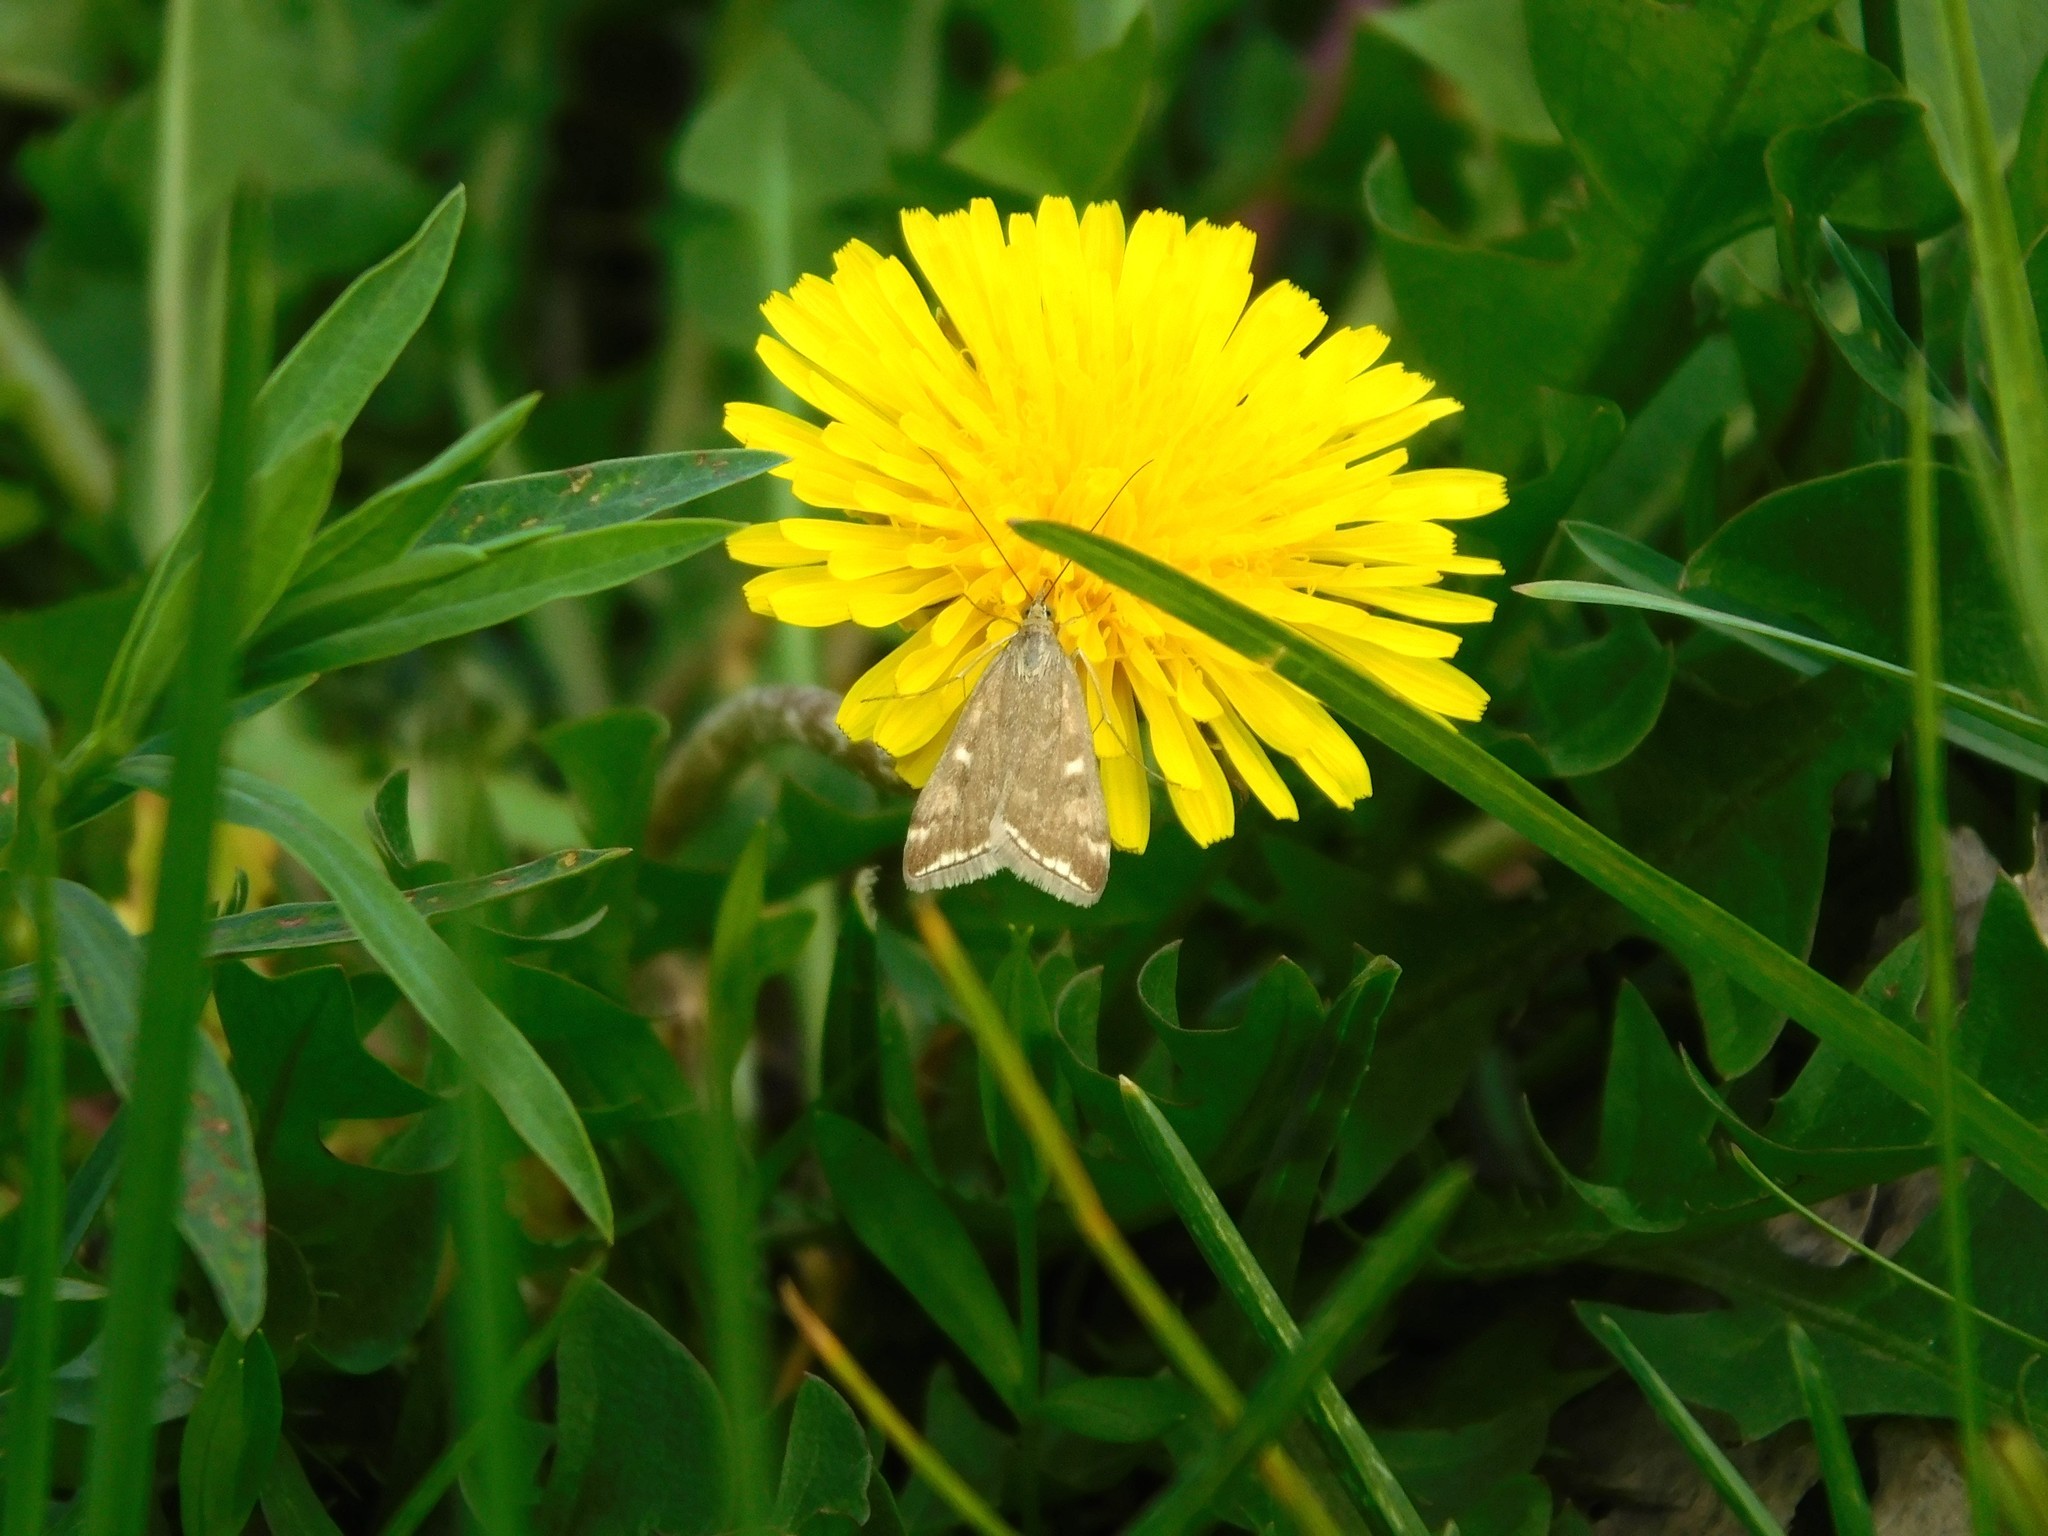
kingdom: Animalia
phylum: Arthropoda
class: Insecta
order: Lepidoptera
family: Crambidae
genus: Loxostege
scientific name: Loxostege sticticalis
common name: Crambid moth
